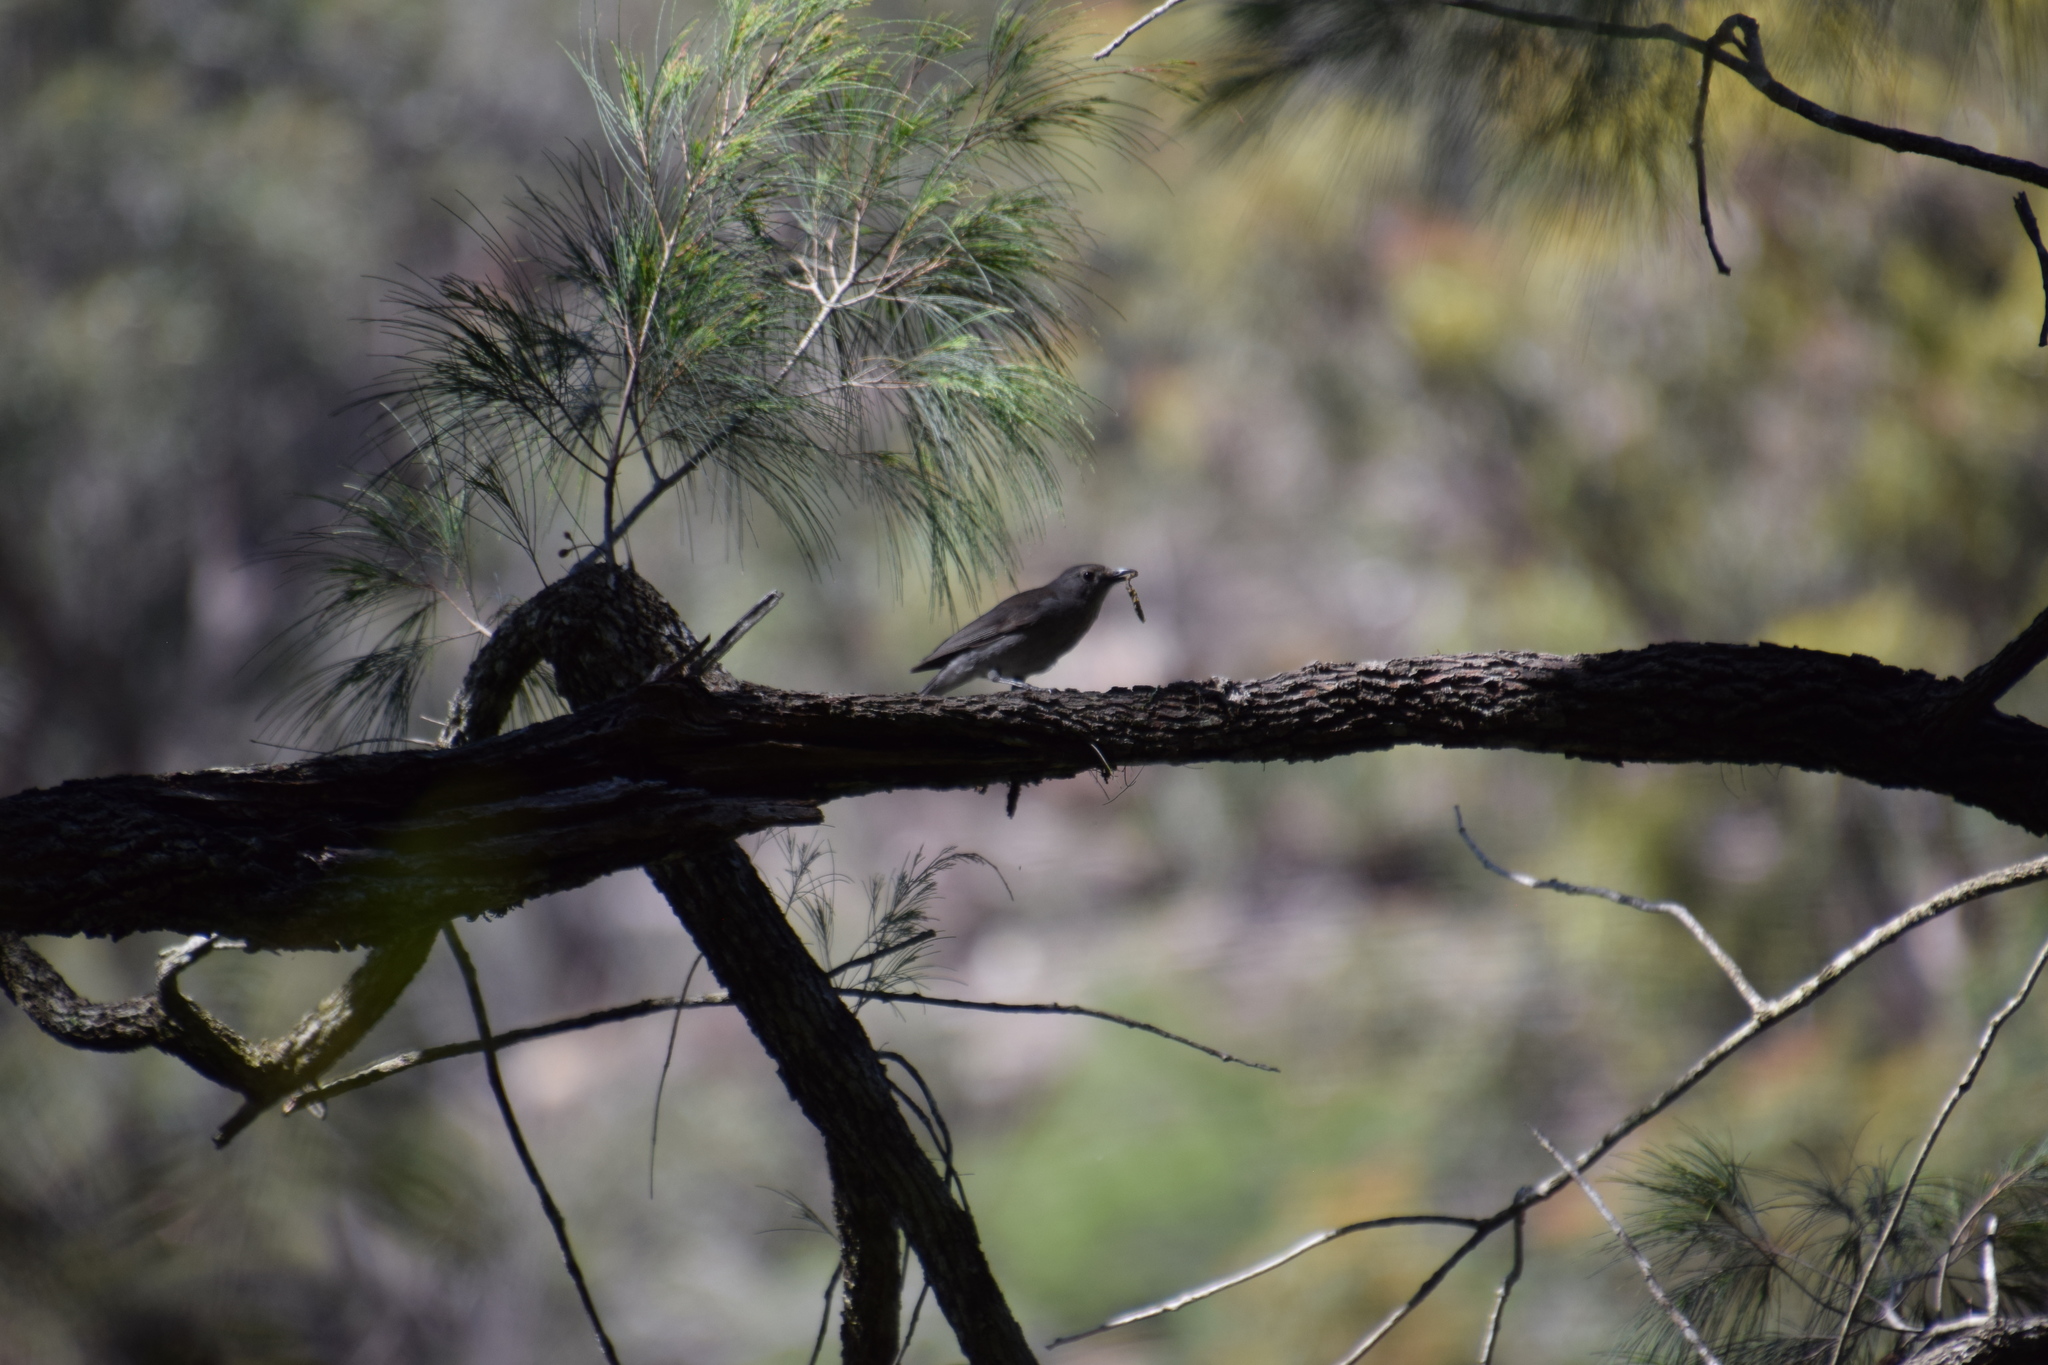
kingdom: Animalia
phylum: Chordata
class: Aves
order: Passeriformes
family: Pachycephalidae
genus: Colluricincla
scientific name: Colluricincla harmonica
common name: Grey shrikethrush
